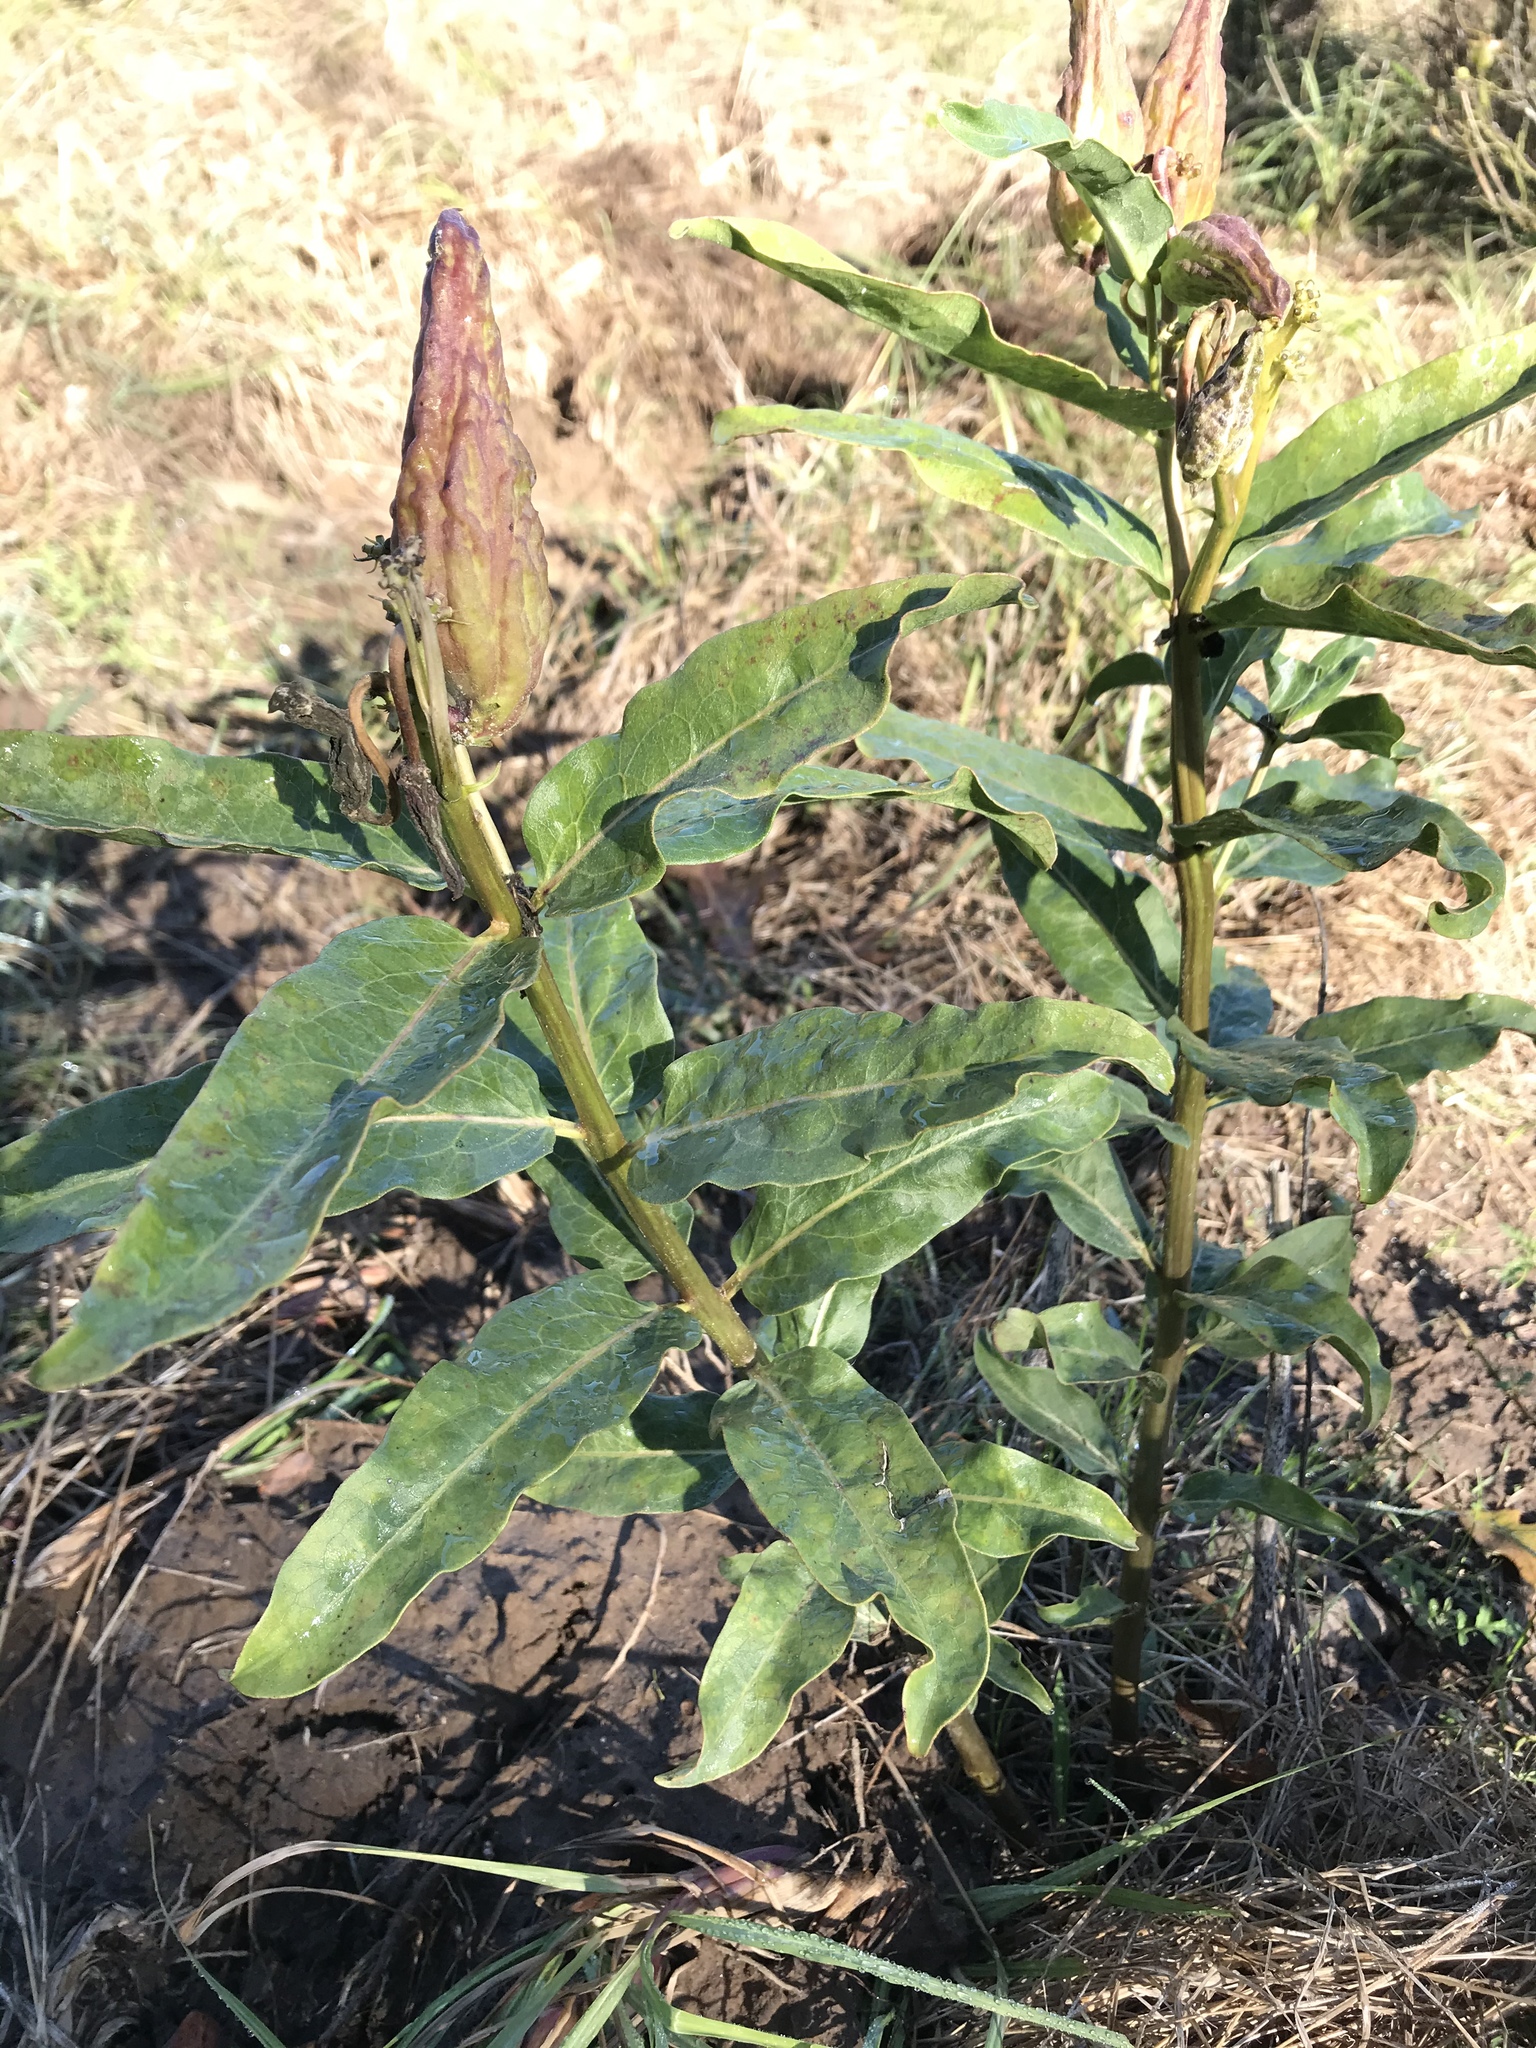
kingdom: Plantae
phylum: Tracheophyta
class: Magnoliopsida
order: Gentianales
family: Apocynaceae
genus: Asclepias
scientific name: Asclepias viridis
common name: Antelope-horns
